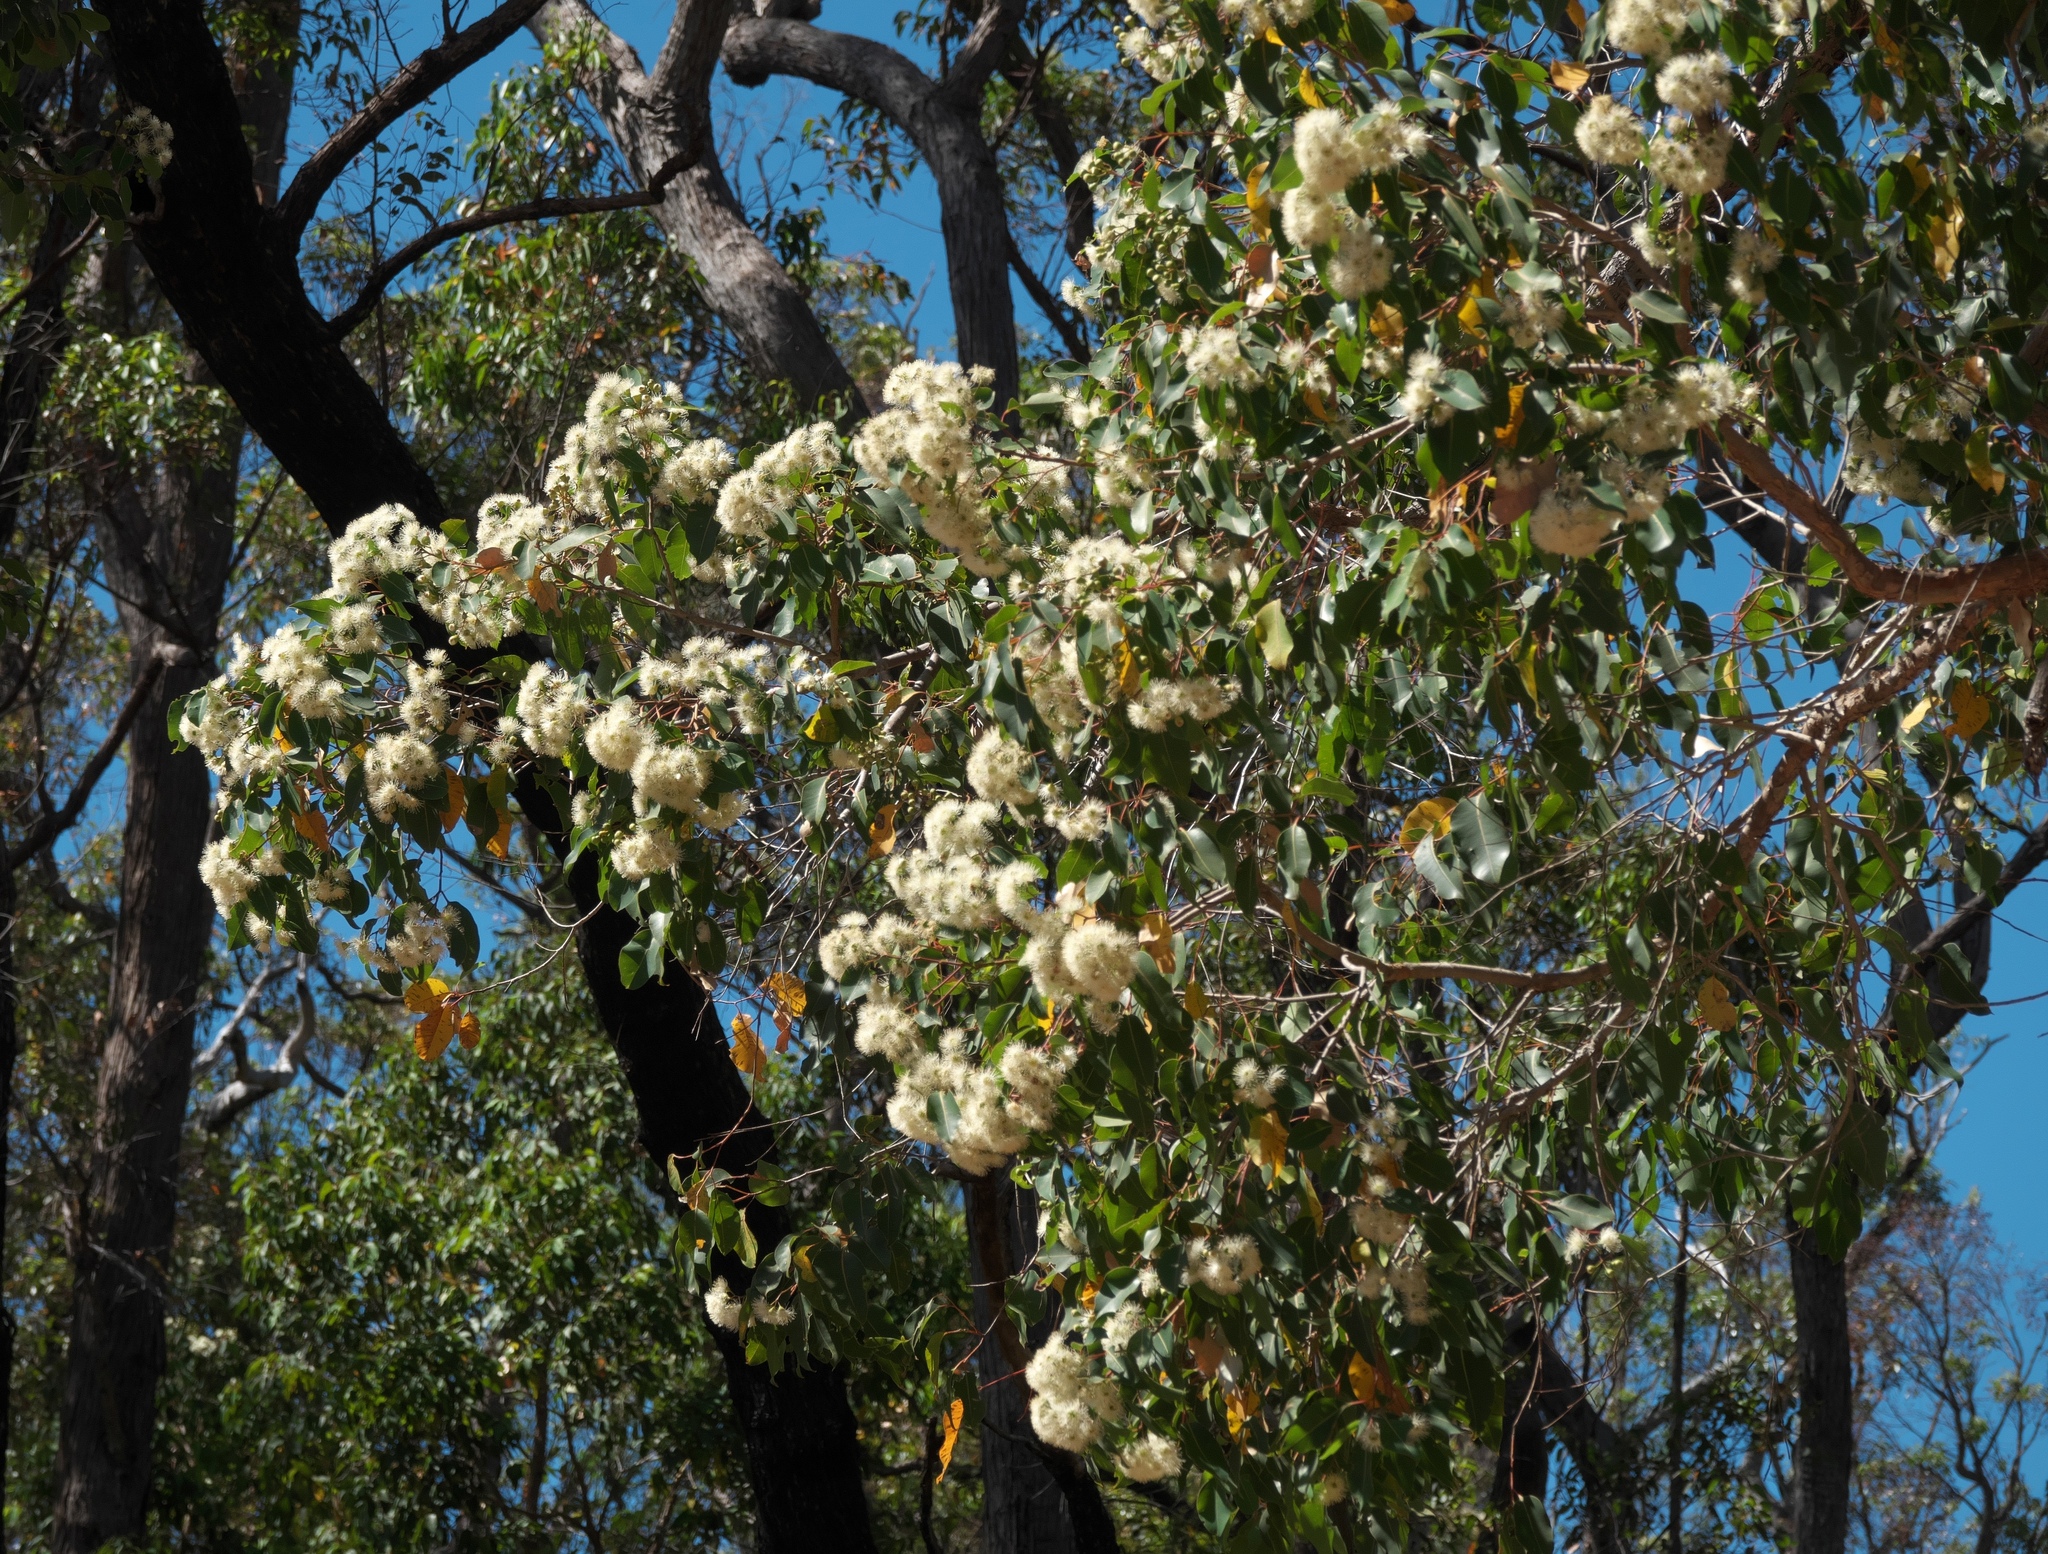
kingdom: Plantae
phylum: Tracheophyta
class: Magnoliopsida
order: Myrtales
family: Myrtaceae
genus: Corymbia
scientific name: Corymbia calophylla
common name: Marri
